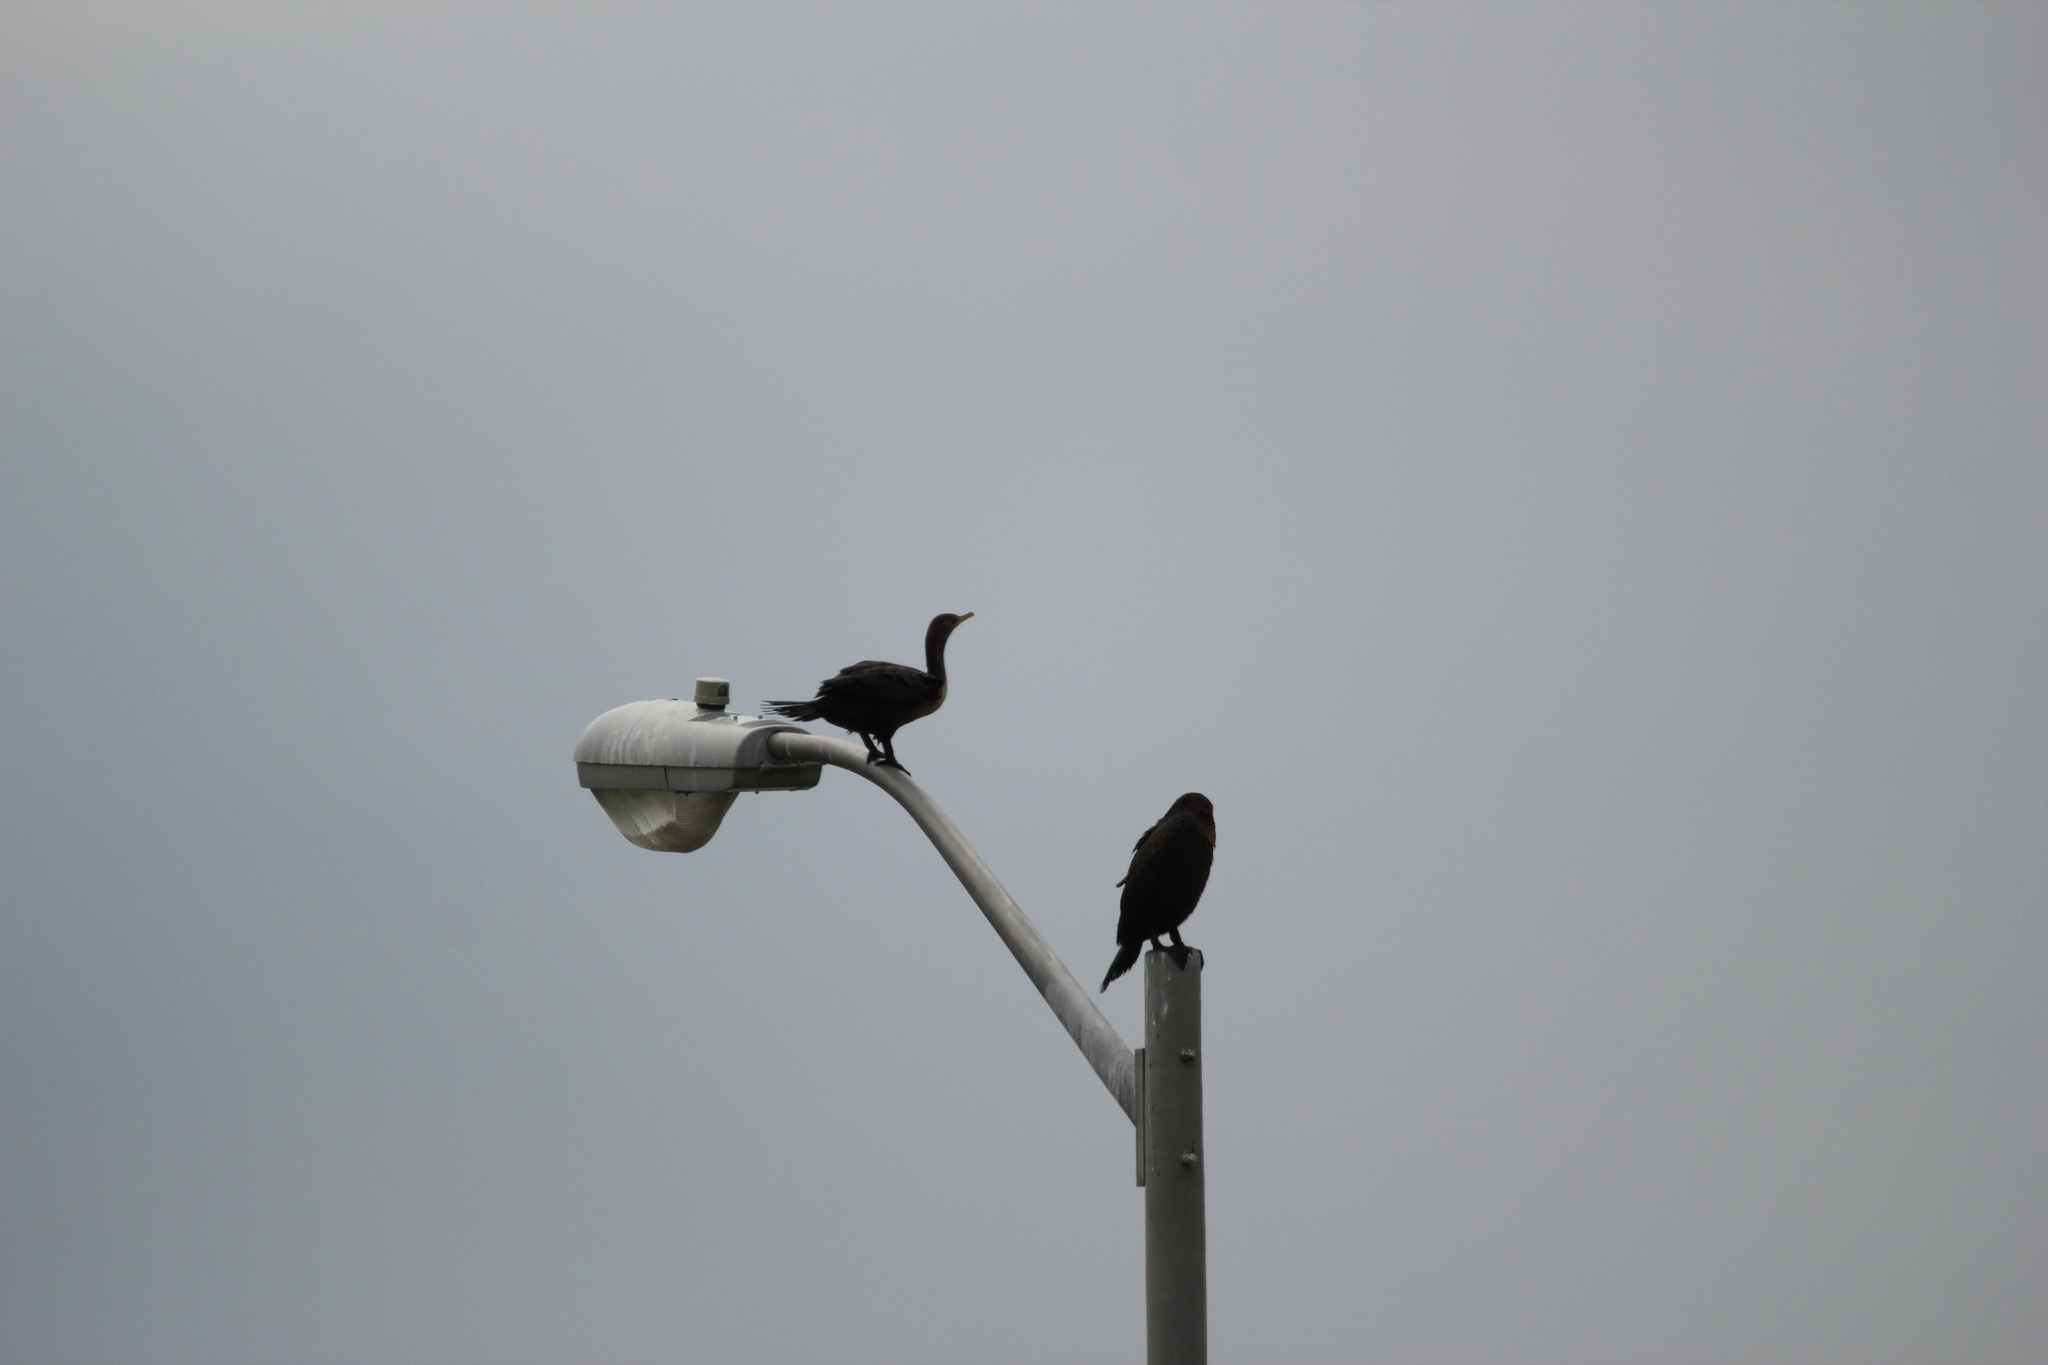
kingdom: Animalia
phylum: Chordata
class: Aves
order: Suliformes
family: Phalacrocoracidae
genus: Phalacrocorax
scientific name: Phalacrocorax auritus
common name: Double-crested cormorant
